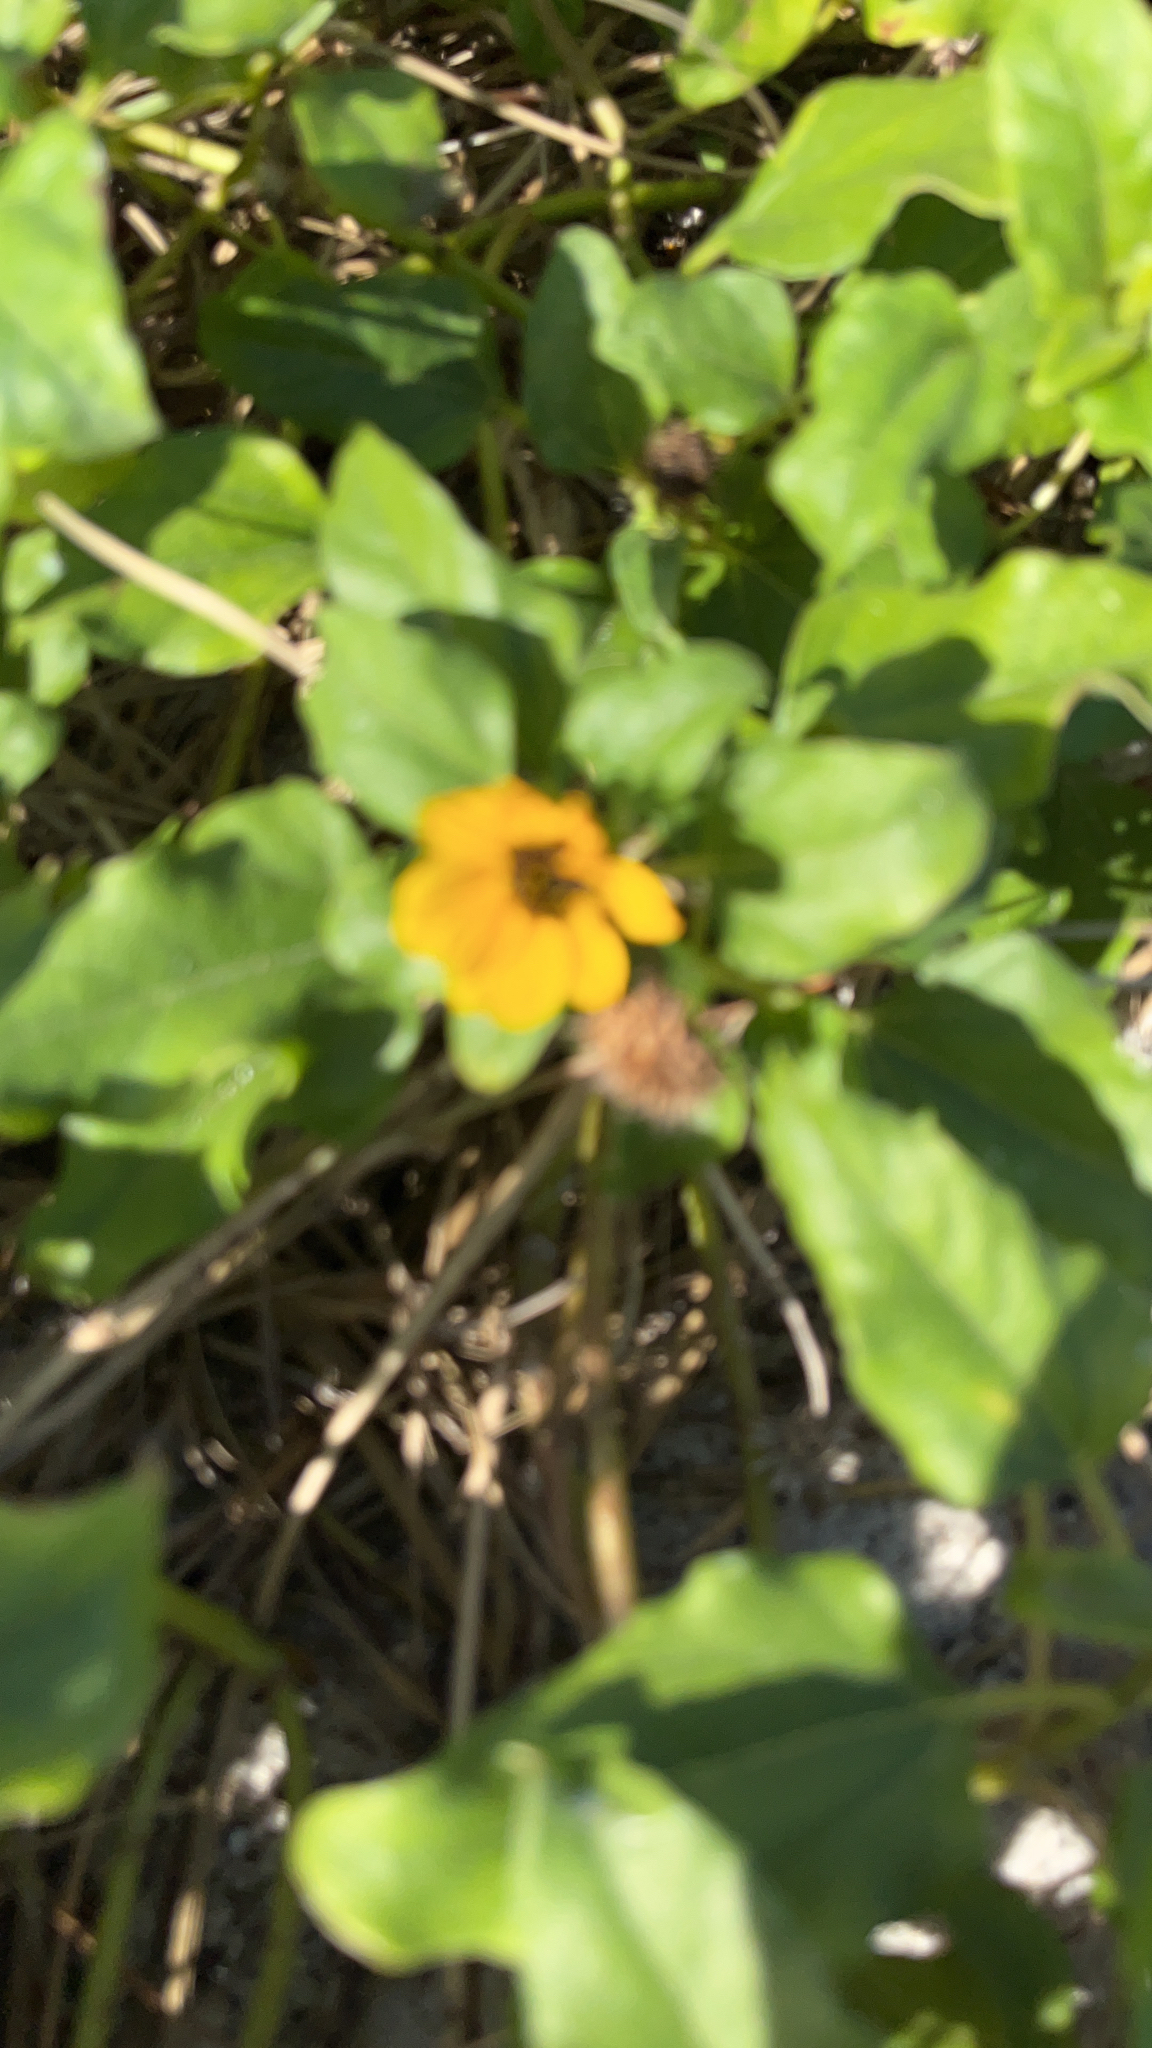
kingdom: Plantae
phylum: Tracheophyta
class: Magnoliopsida
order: Asterales
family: Asteraceae
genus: Helianthus
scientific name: Helianthus debilis
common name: Weak sunflower
